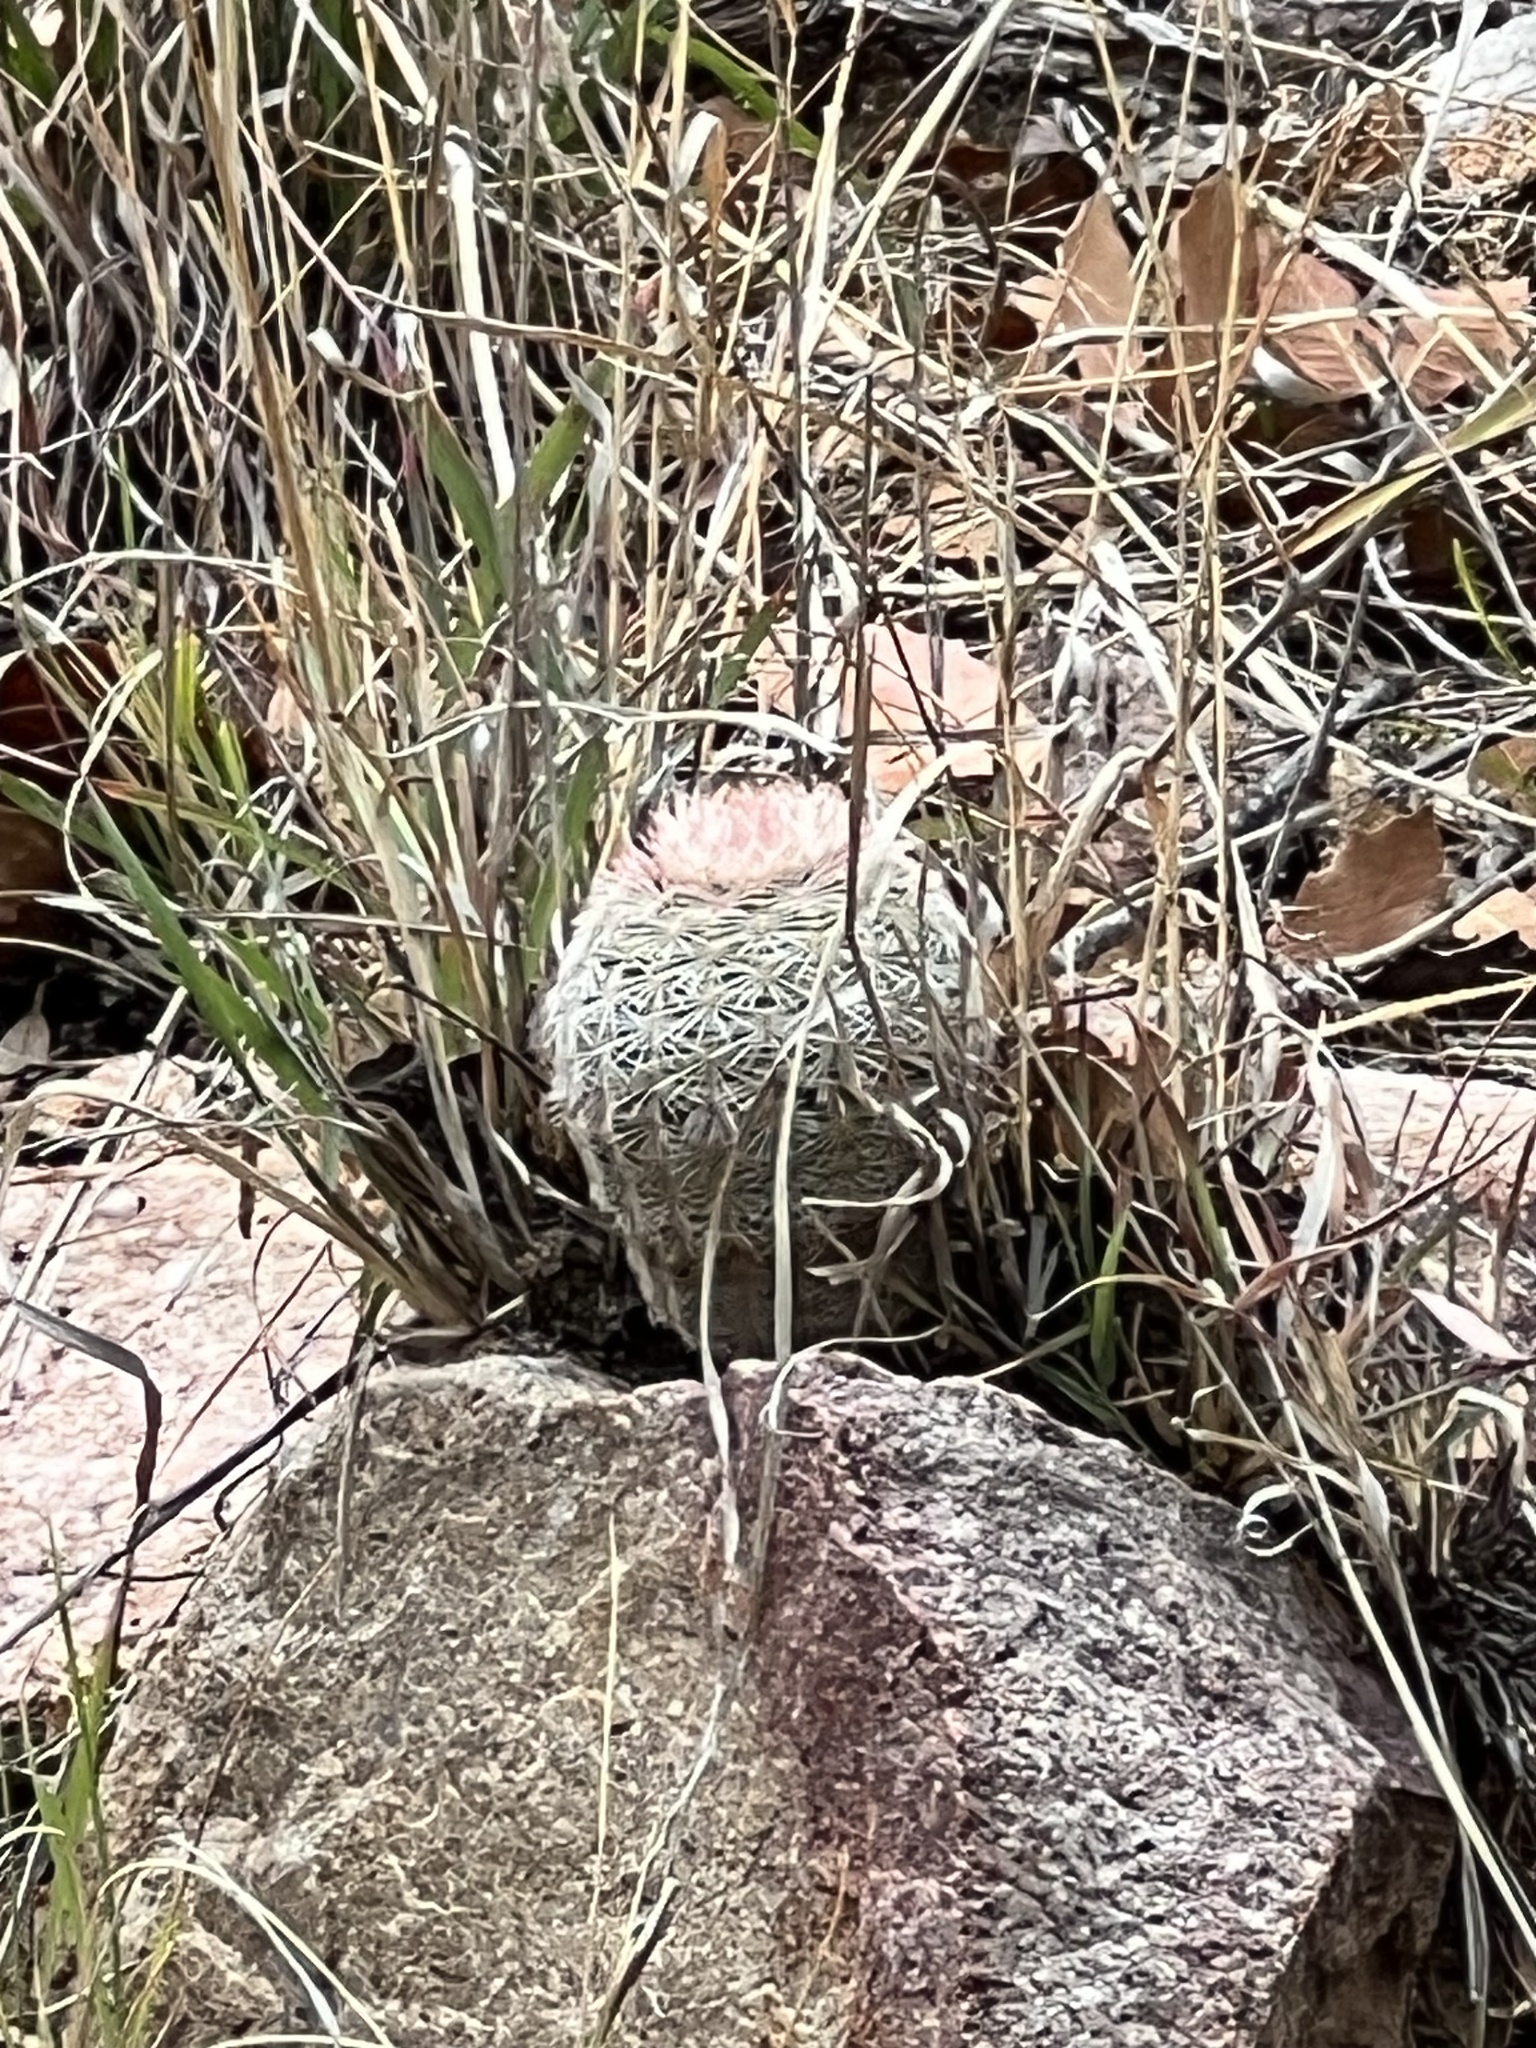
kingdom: Plantae
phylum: Tracheophyta
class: Magnoliopsida
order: Caryophyllales
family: Cactaceae
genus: Echinocereus
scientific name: Echinocereus rigidissimus
